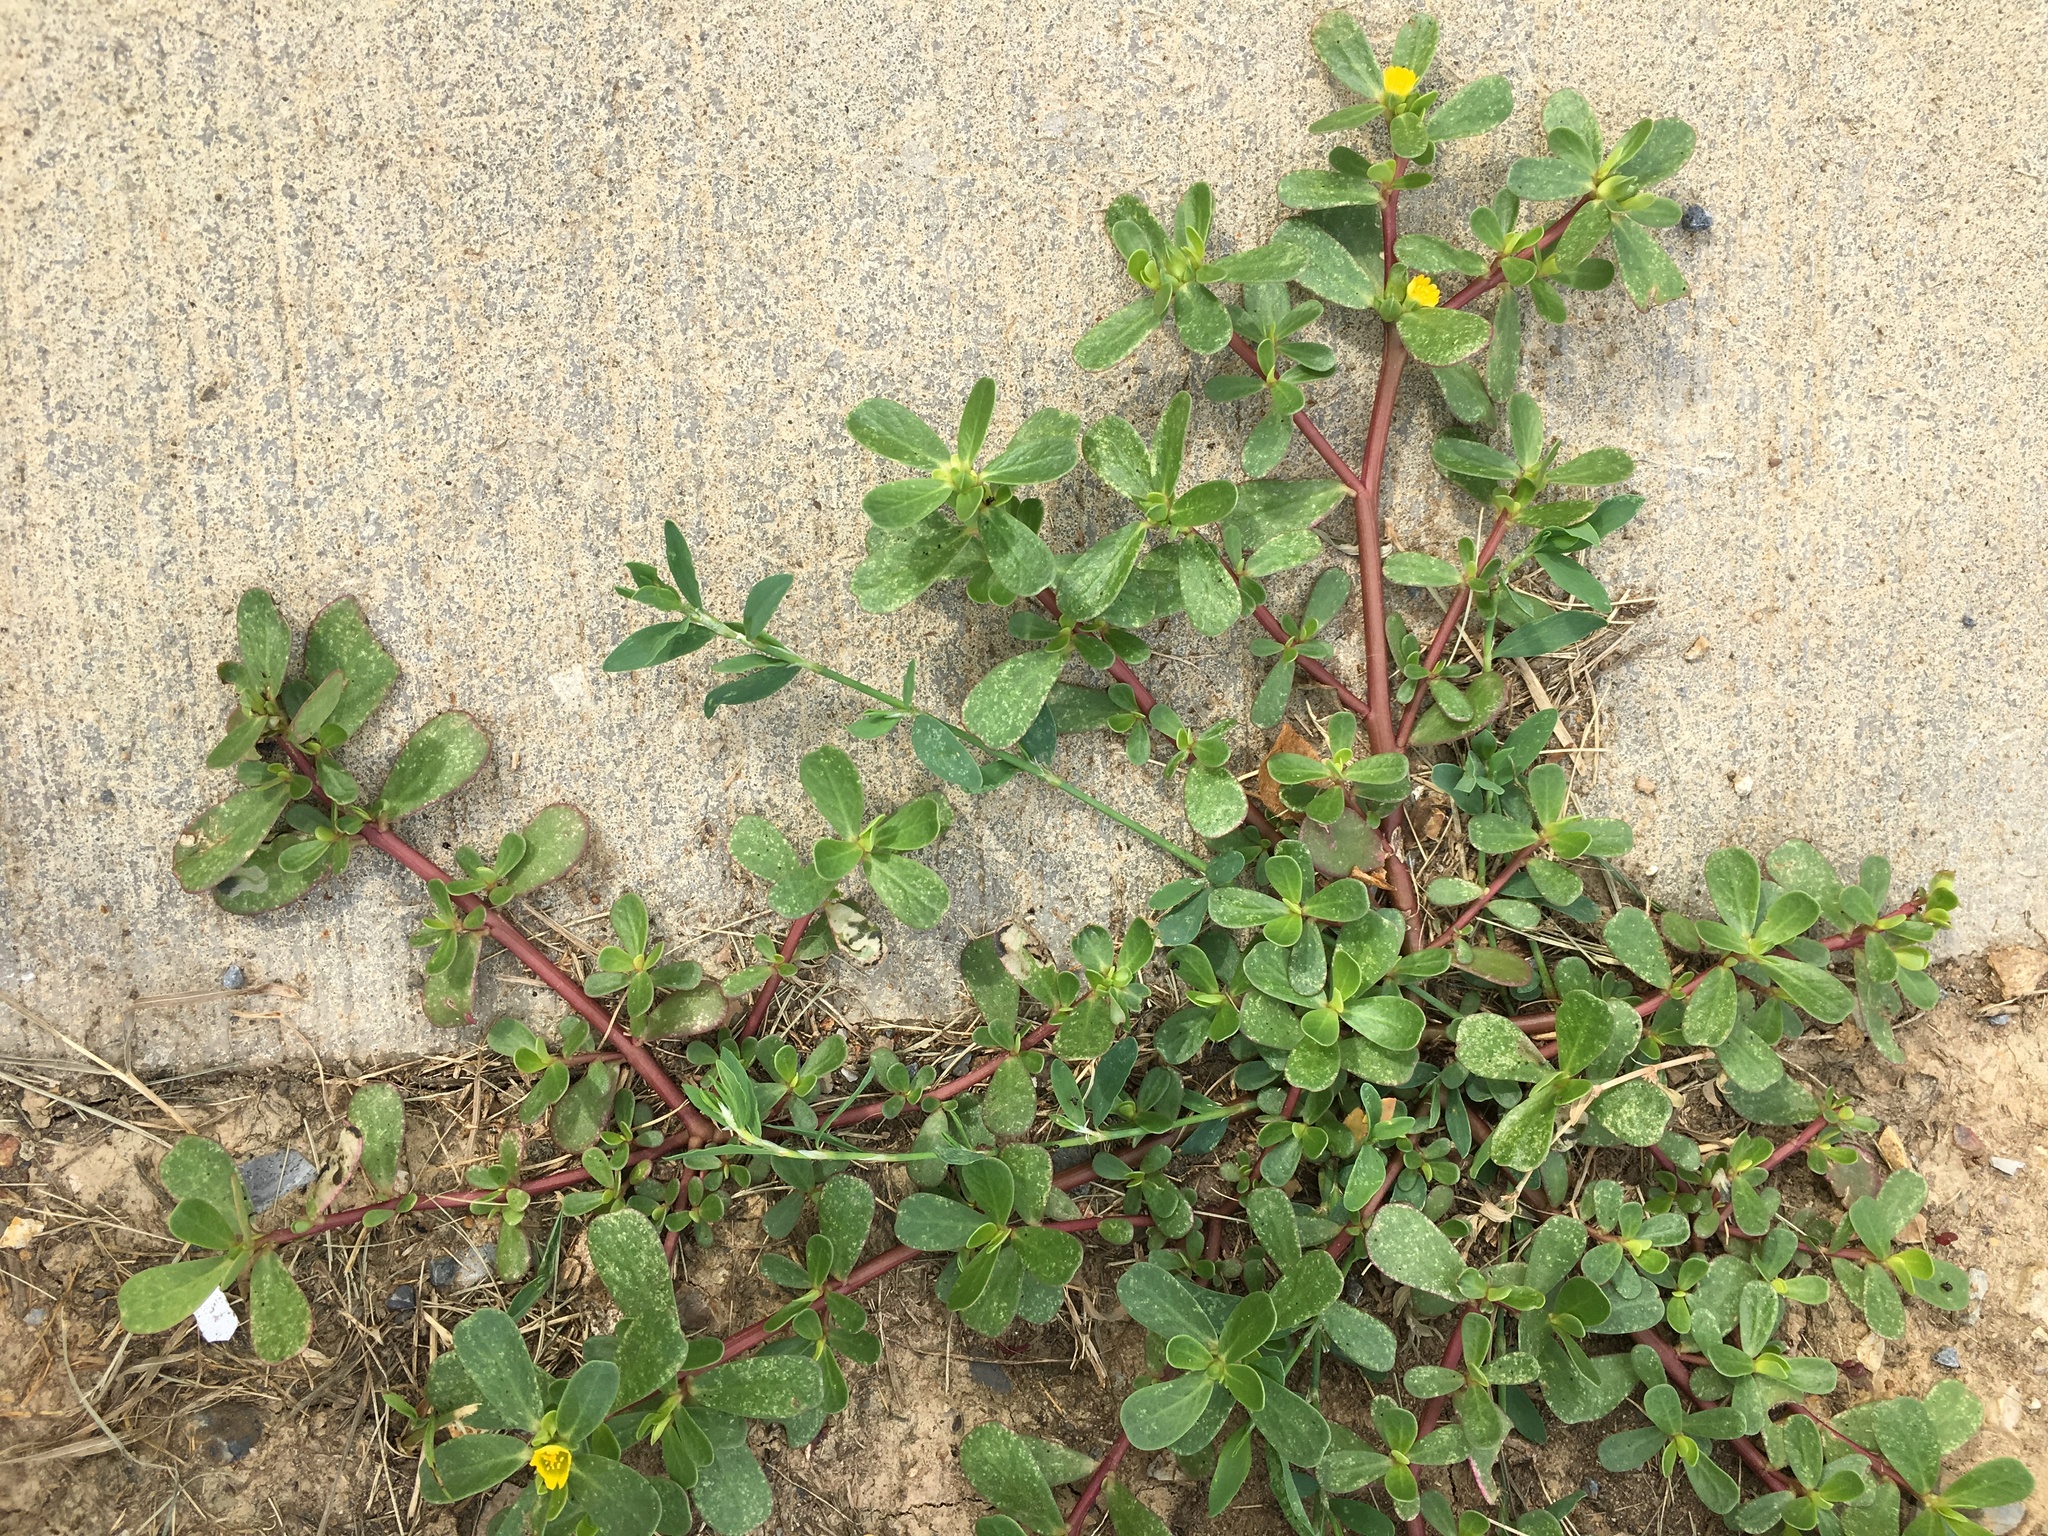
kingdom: Plantae
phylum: Tracheophyta
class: Magnoliopsida
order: Caryophyllales
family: Portulacaceae
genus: Portulaca
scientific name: Portulaca oleracea
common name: Common purslane
